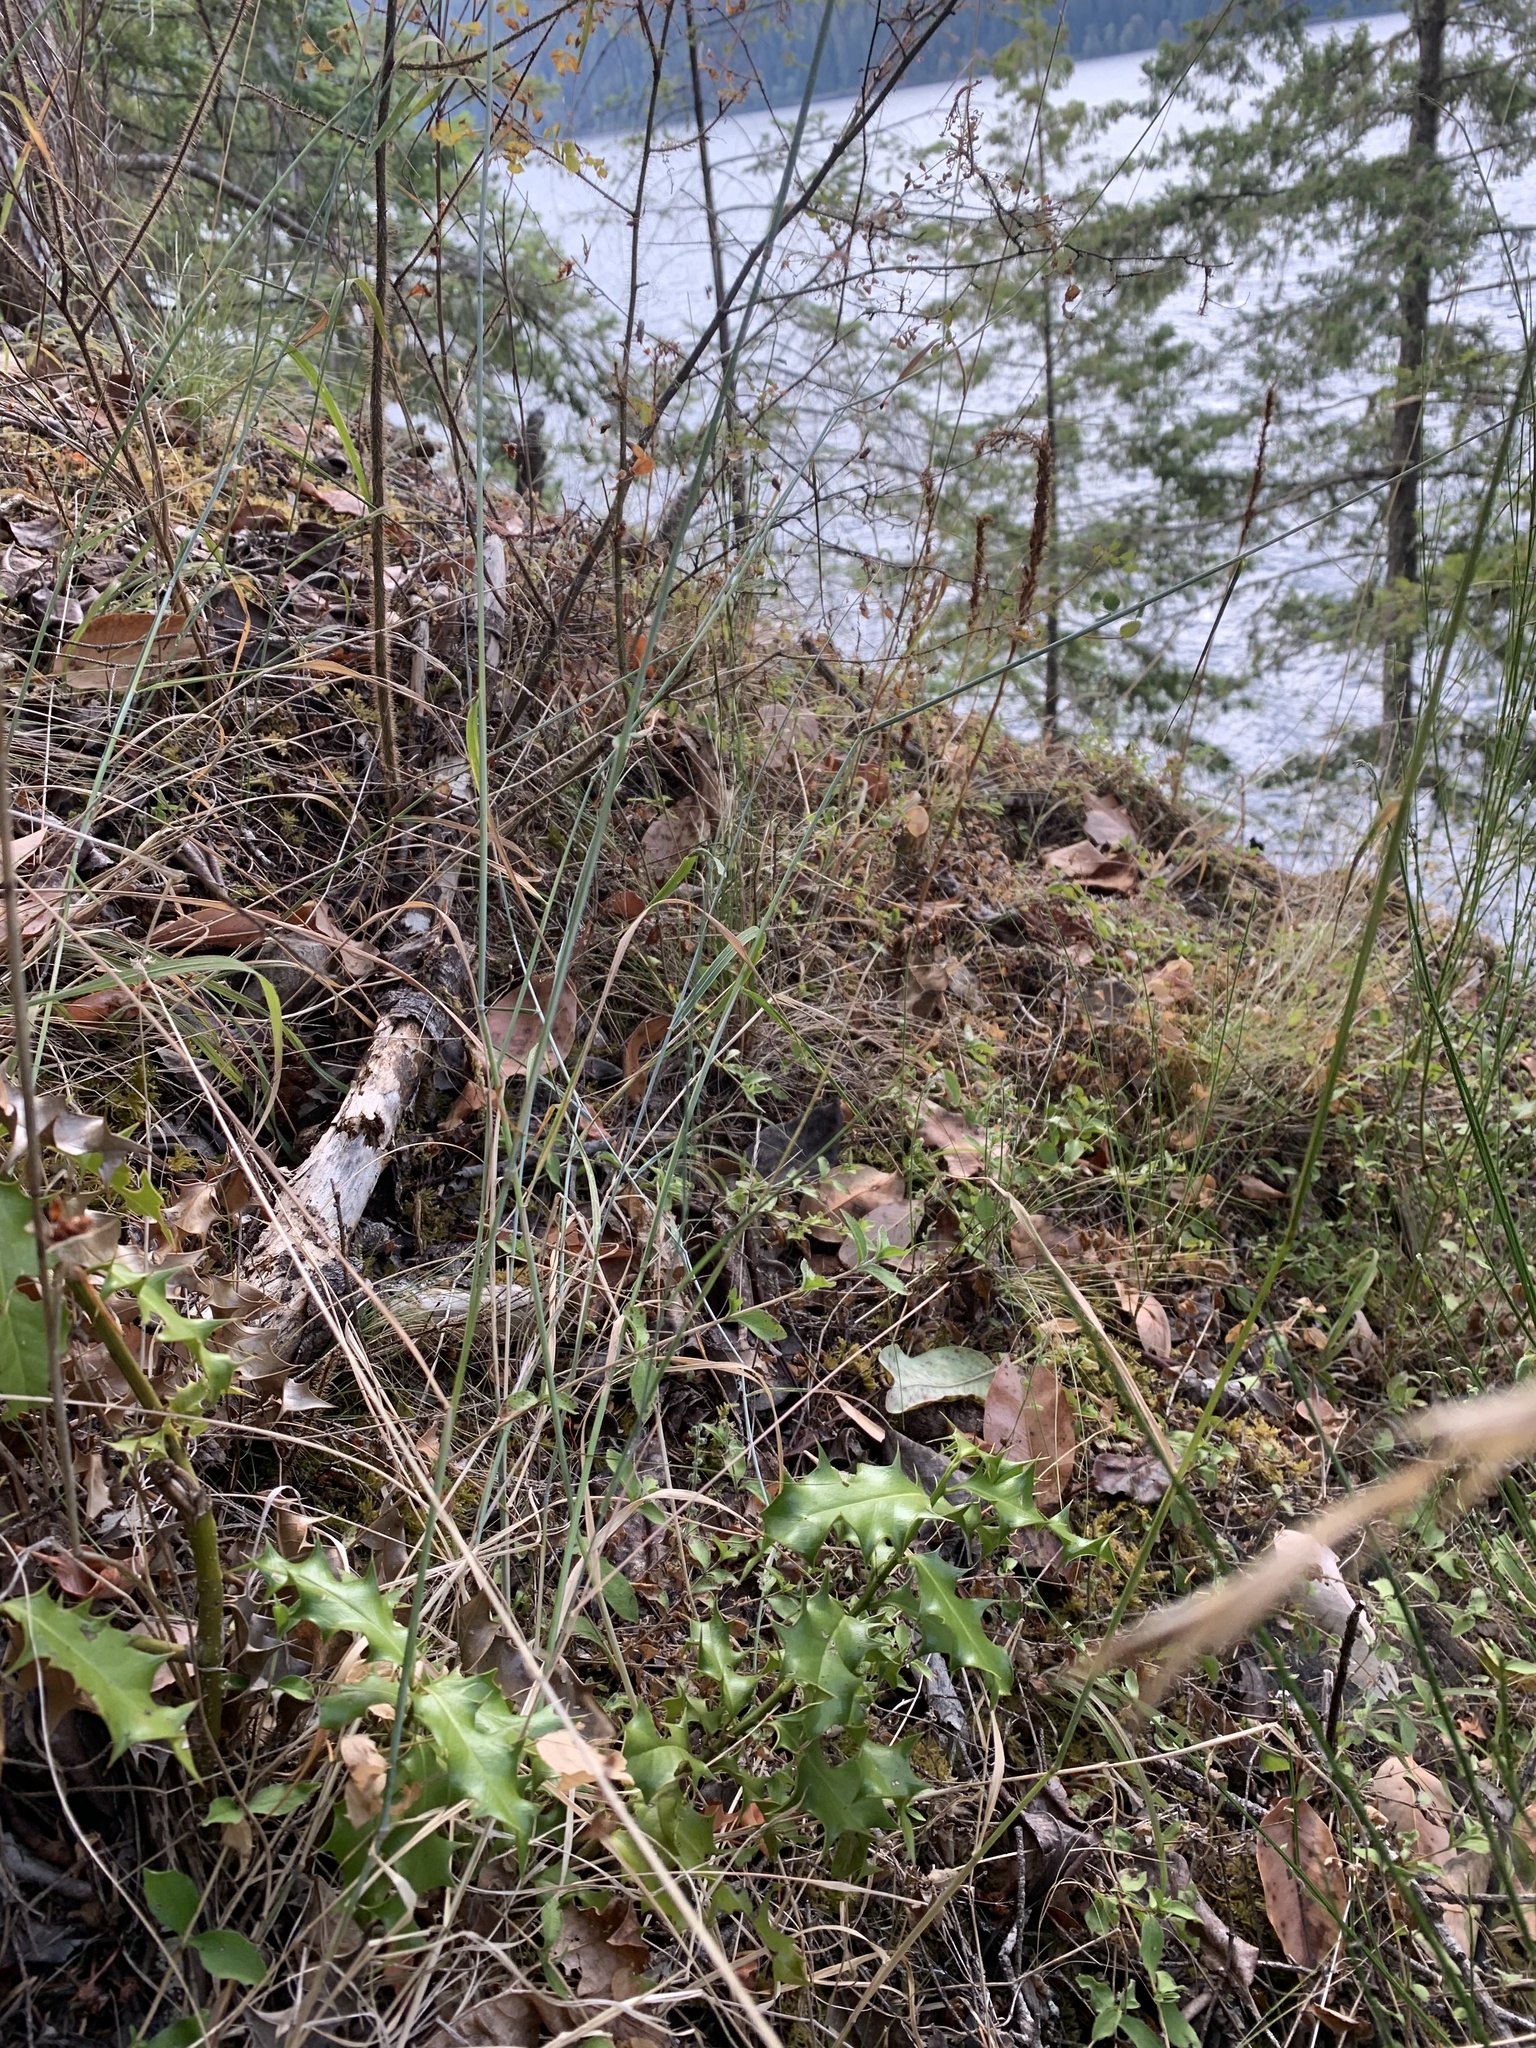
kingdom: Plantae
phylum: Tracheophyta
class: Magnoliopsida
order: Aquifoliales
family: Aquifoliaceae
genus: Ilex
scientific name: Ilex aquifolium
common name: English holly
